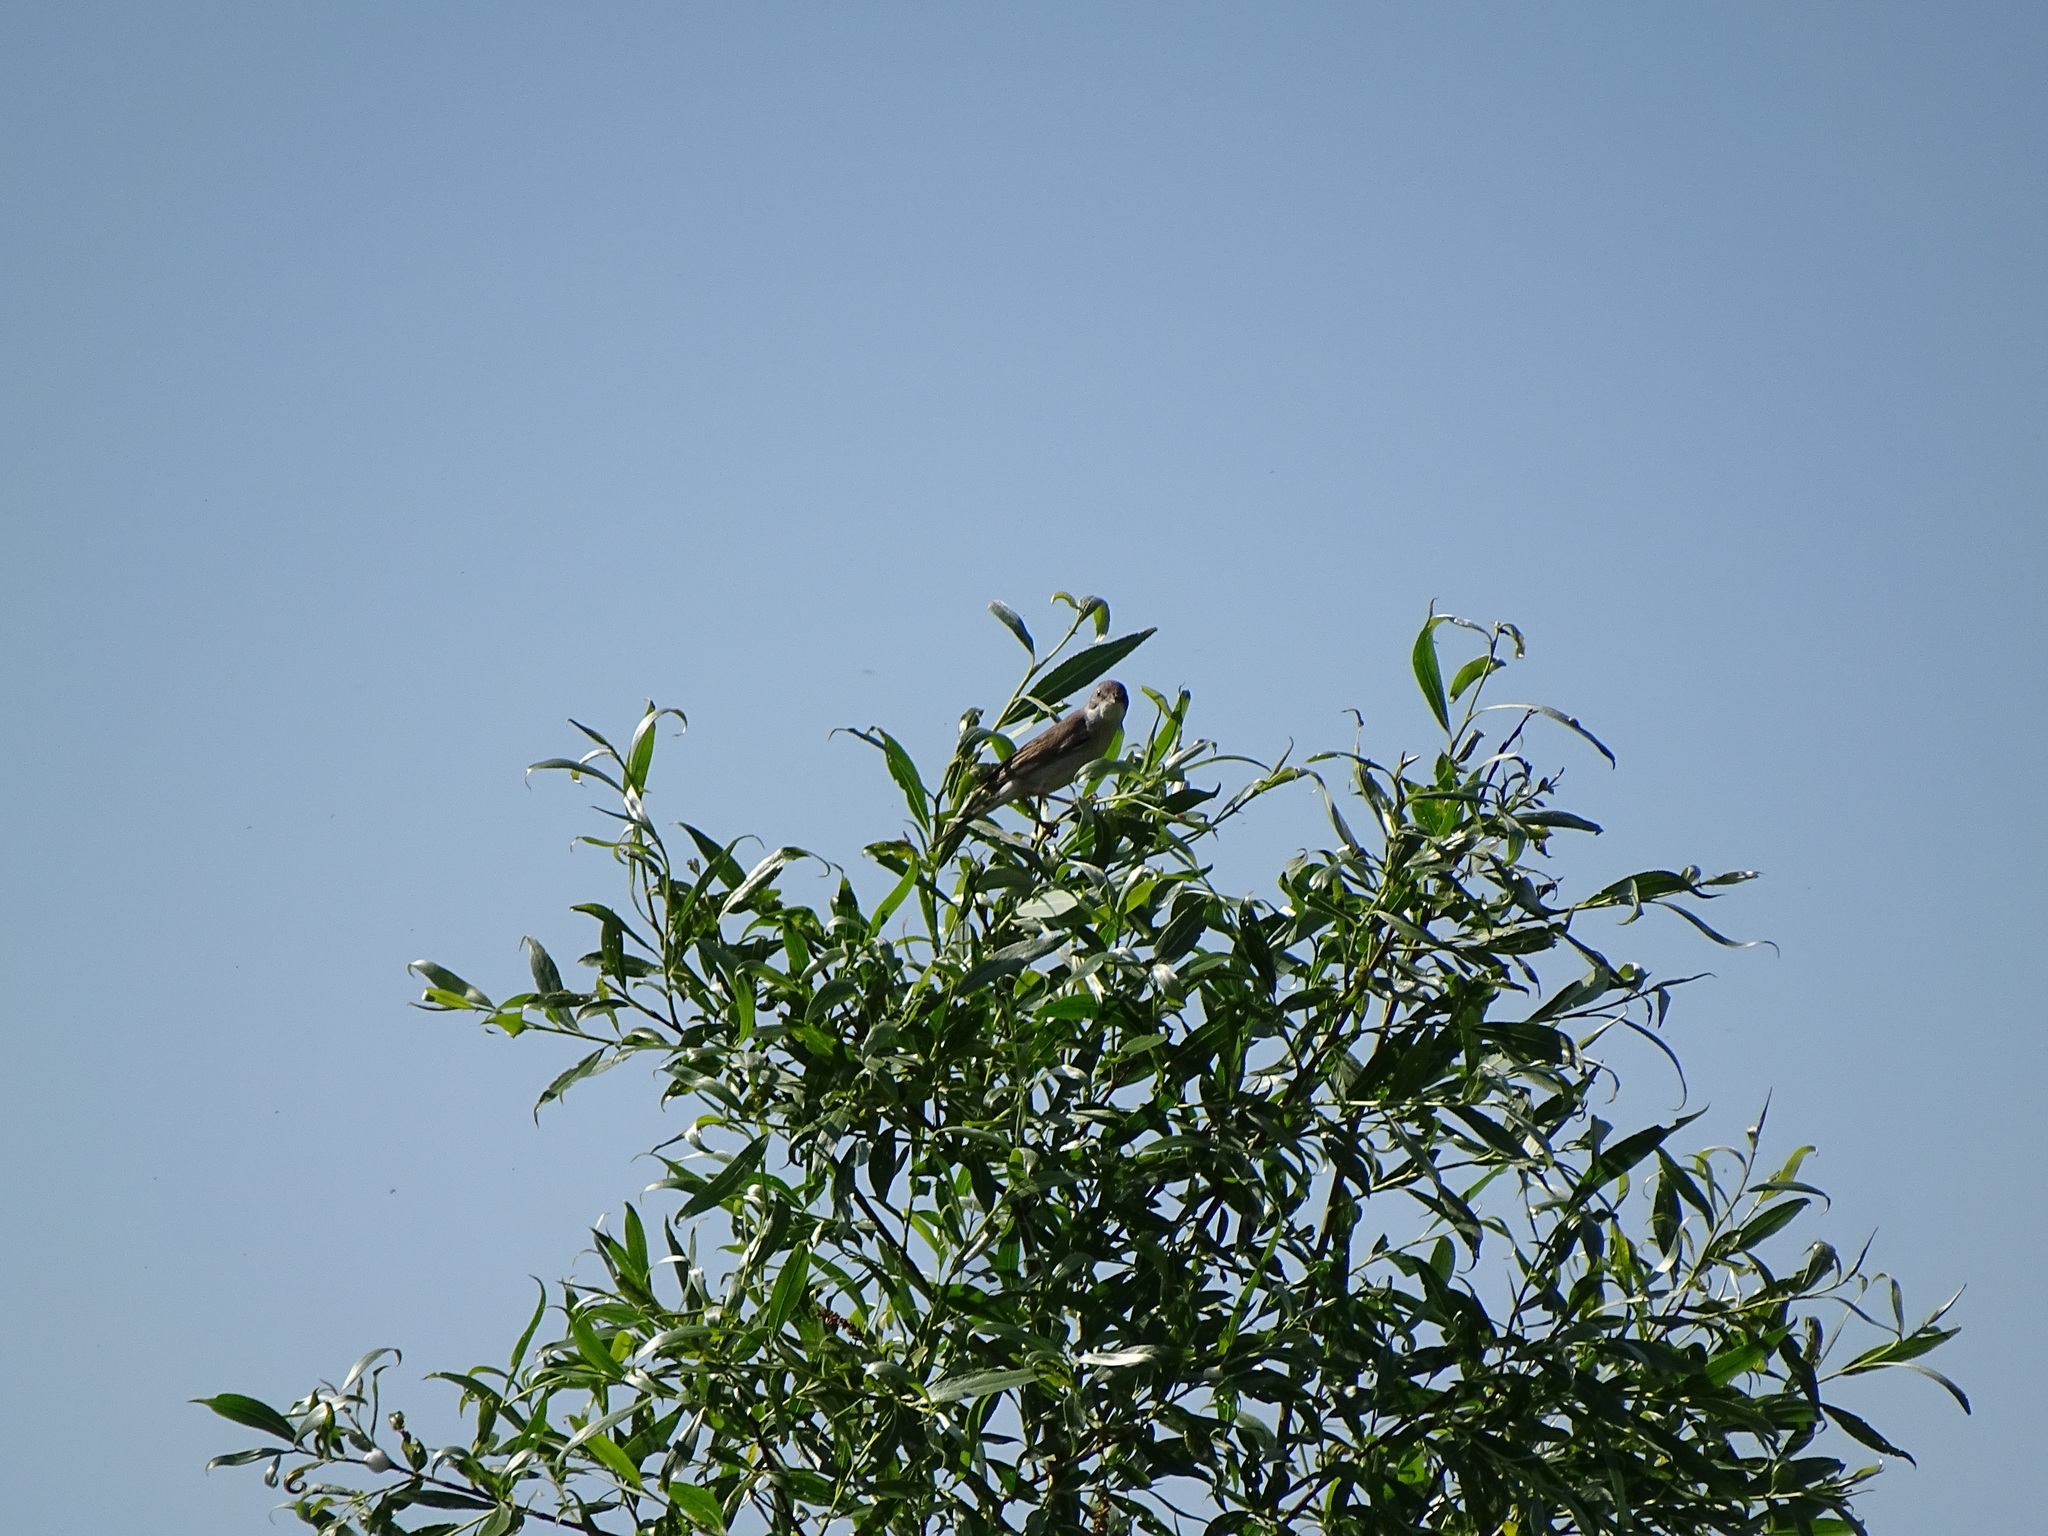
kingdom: Animalia
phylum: Chordata
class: Aves
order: Passeriformes
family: Sylviidae
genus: Sylvia
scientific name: Sylvia communis
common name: Common whitethroat
